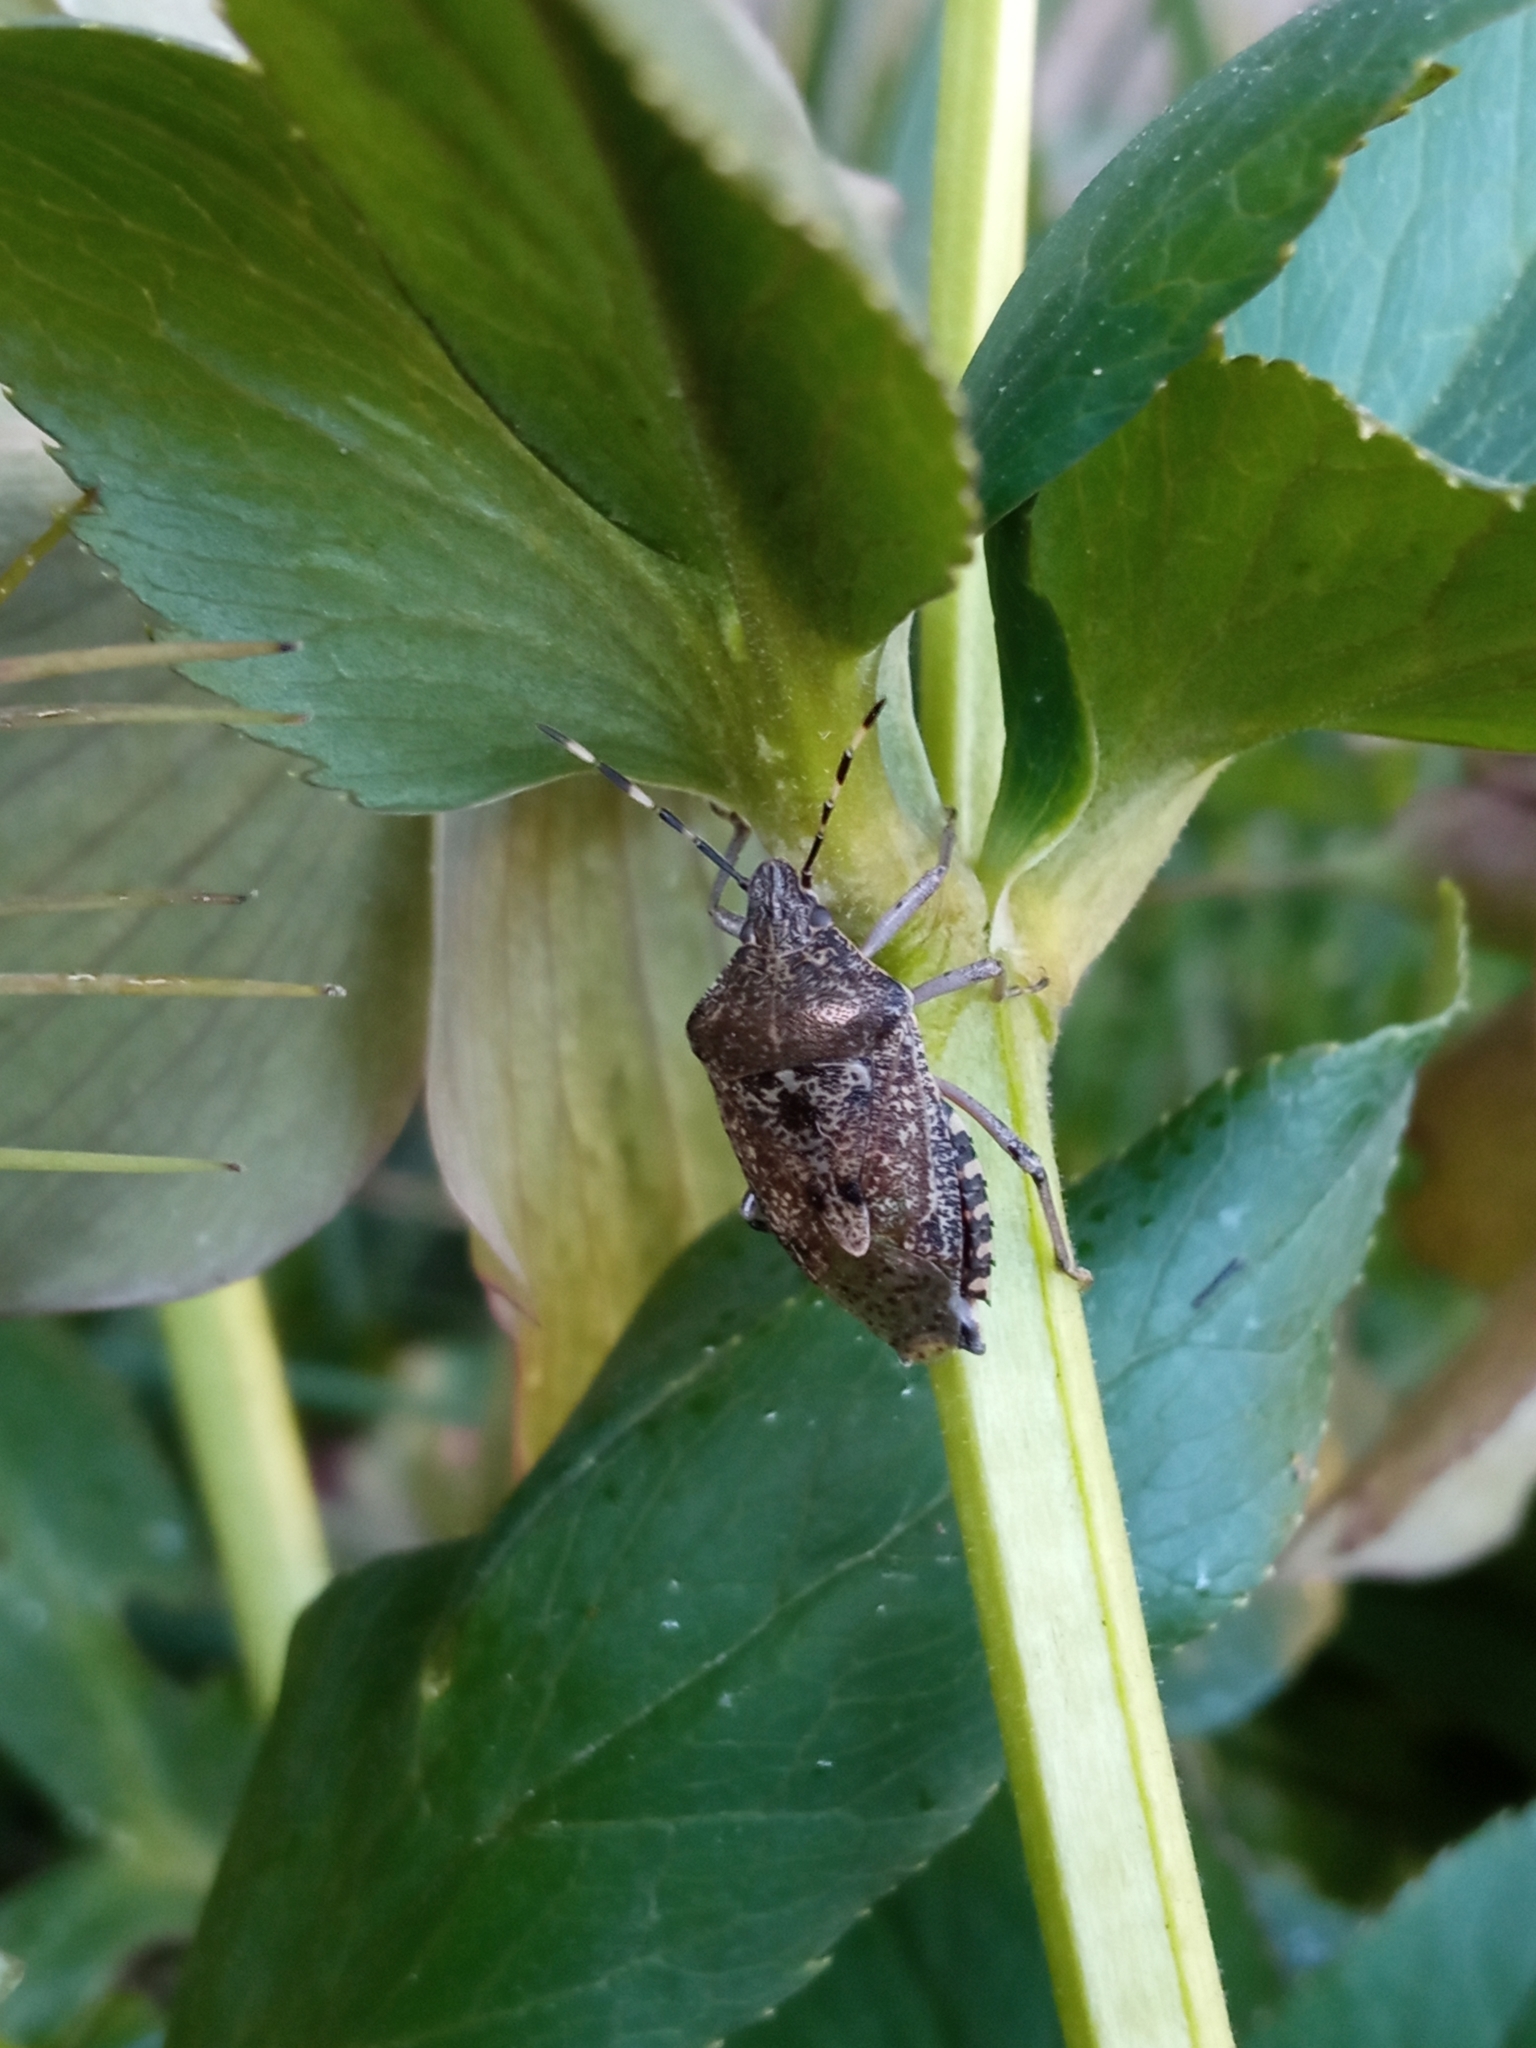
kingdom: Animalia
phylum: Arthropoda
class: Insecta
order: Hemiptera
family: Pentatomidae
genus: Rhaphigaster
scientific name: Rhaphigaster nebulosa
